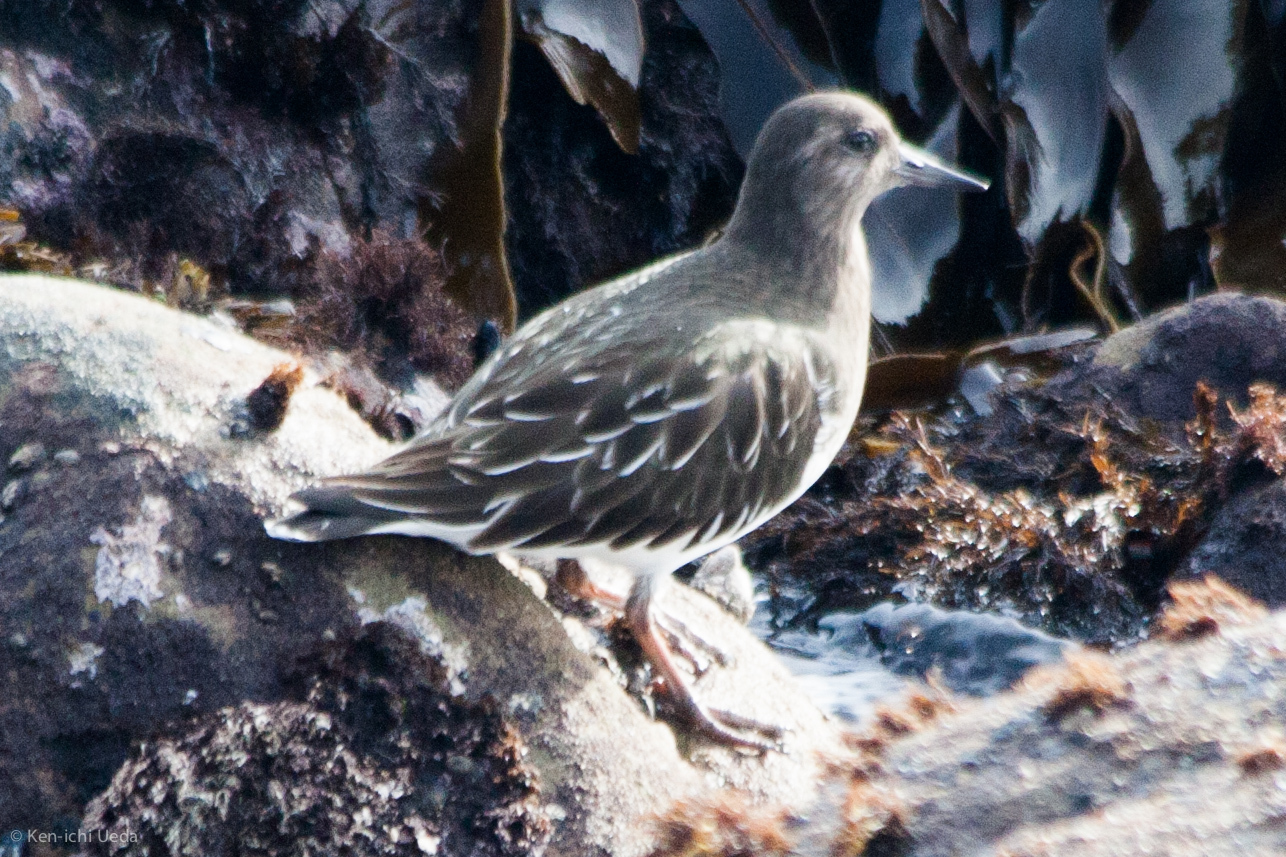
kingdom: Animalia
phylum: Chordata
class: Aves
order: Charadriiformes
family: Scolopacidae
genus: Arenaria
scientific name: Arenaria melanocephala
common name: Black turnstone
